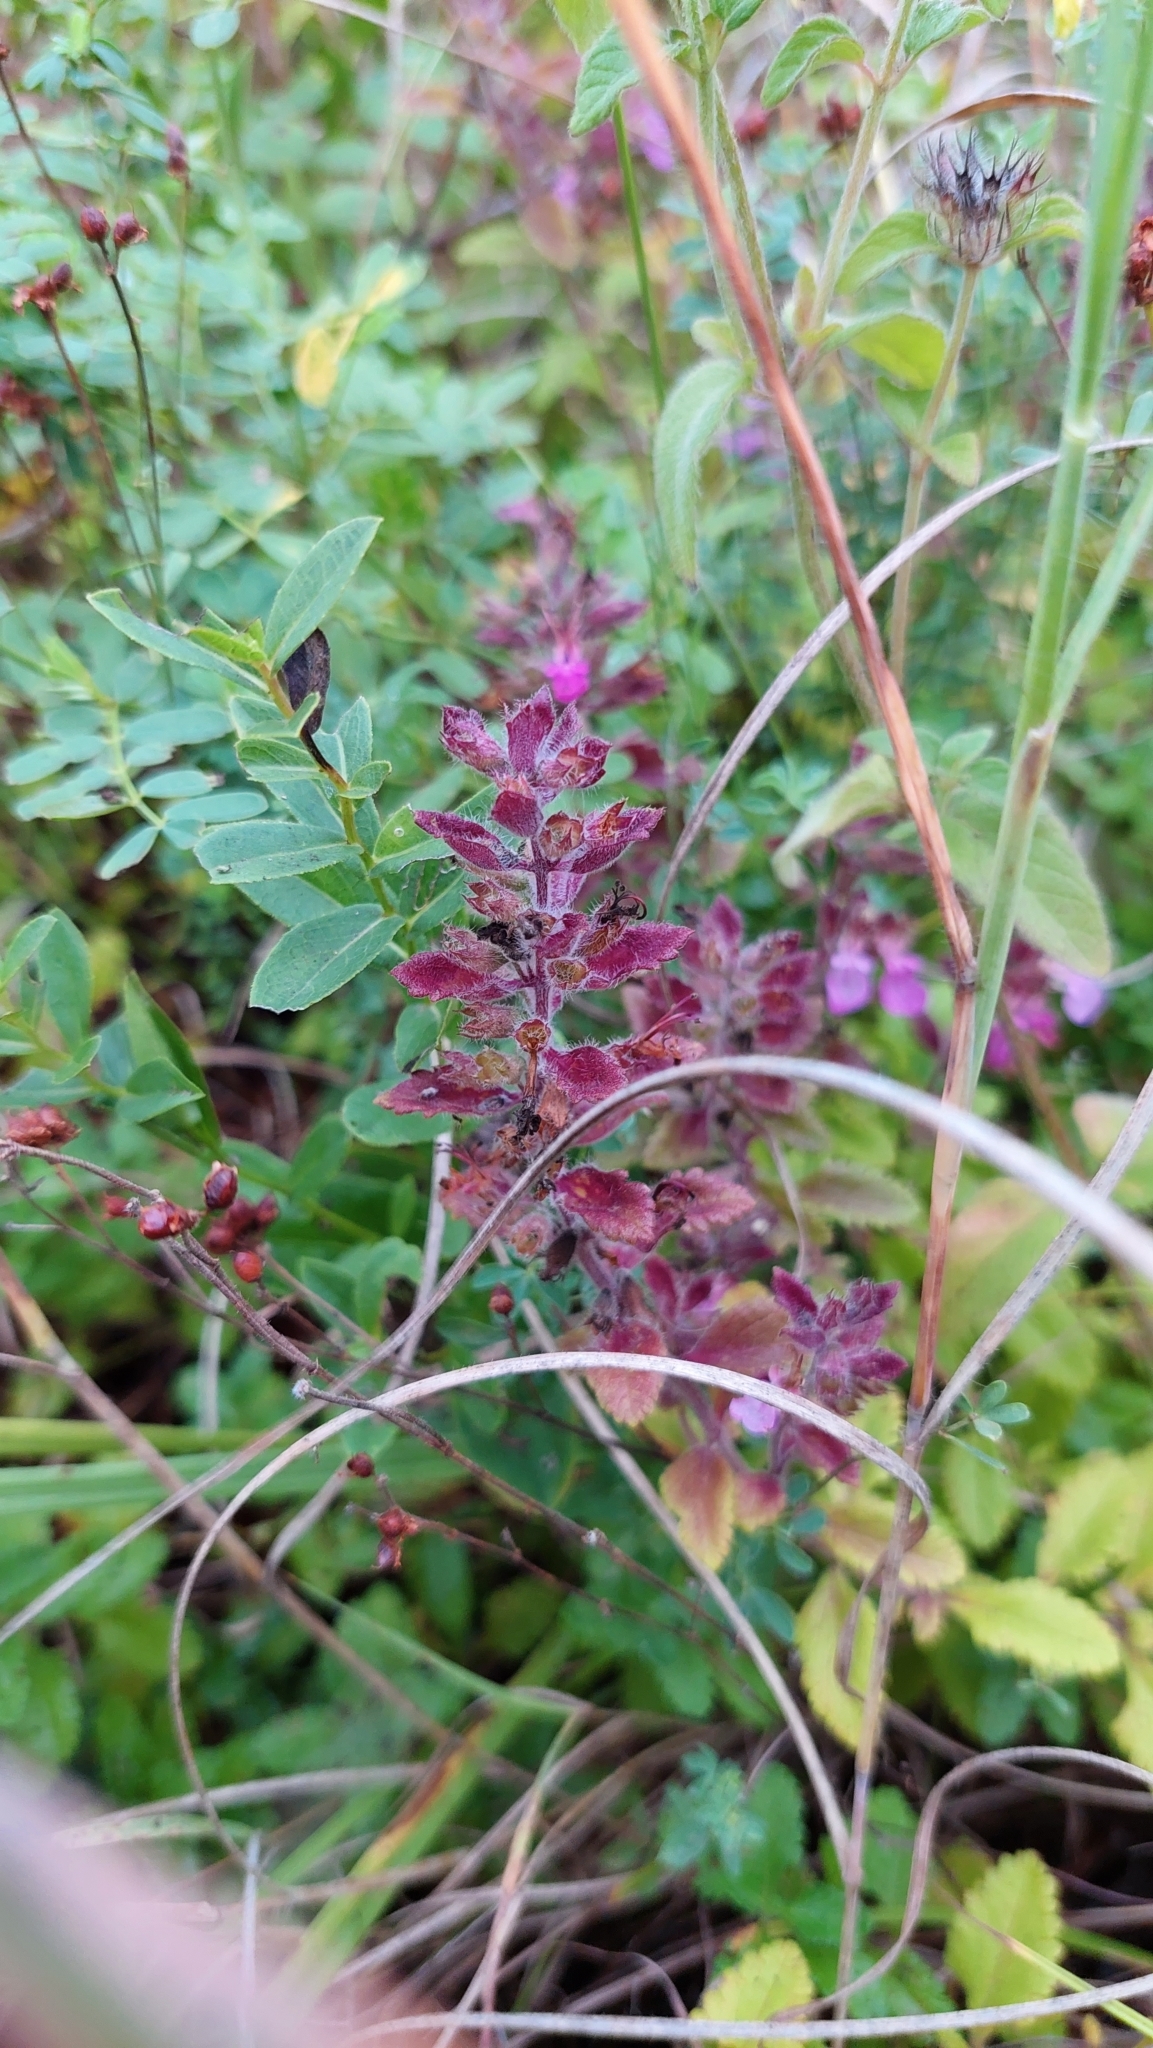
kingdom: Plantae
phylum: Tracheophyta
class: Magnoliopsida
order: Lamiales
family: Lamiaceae
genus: Teucrium
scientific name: Teucrium chamaedrys
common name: Wall germander
